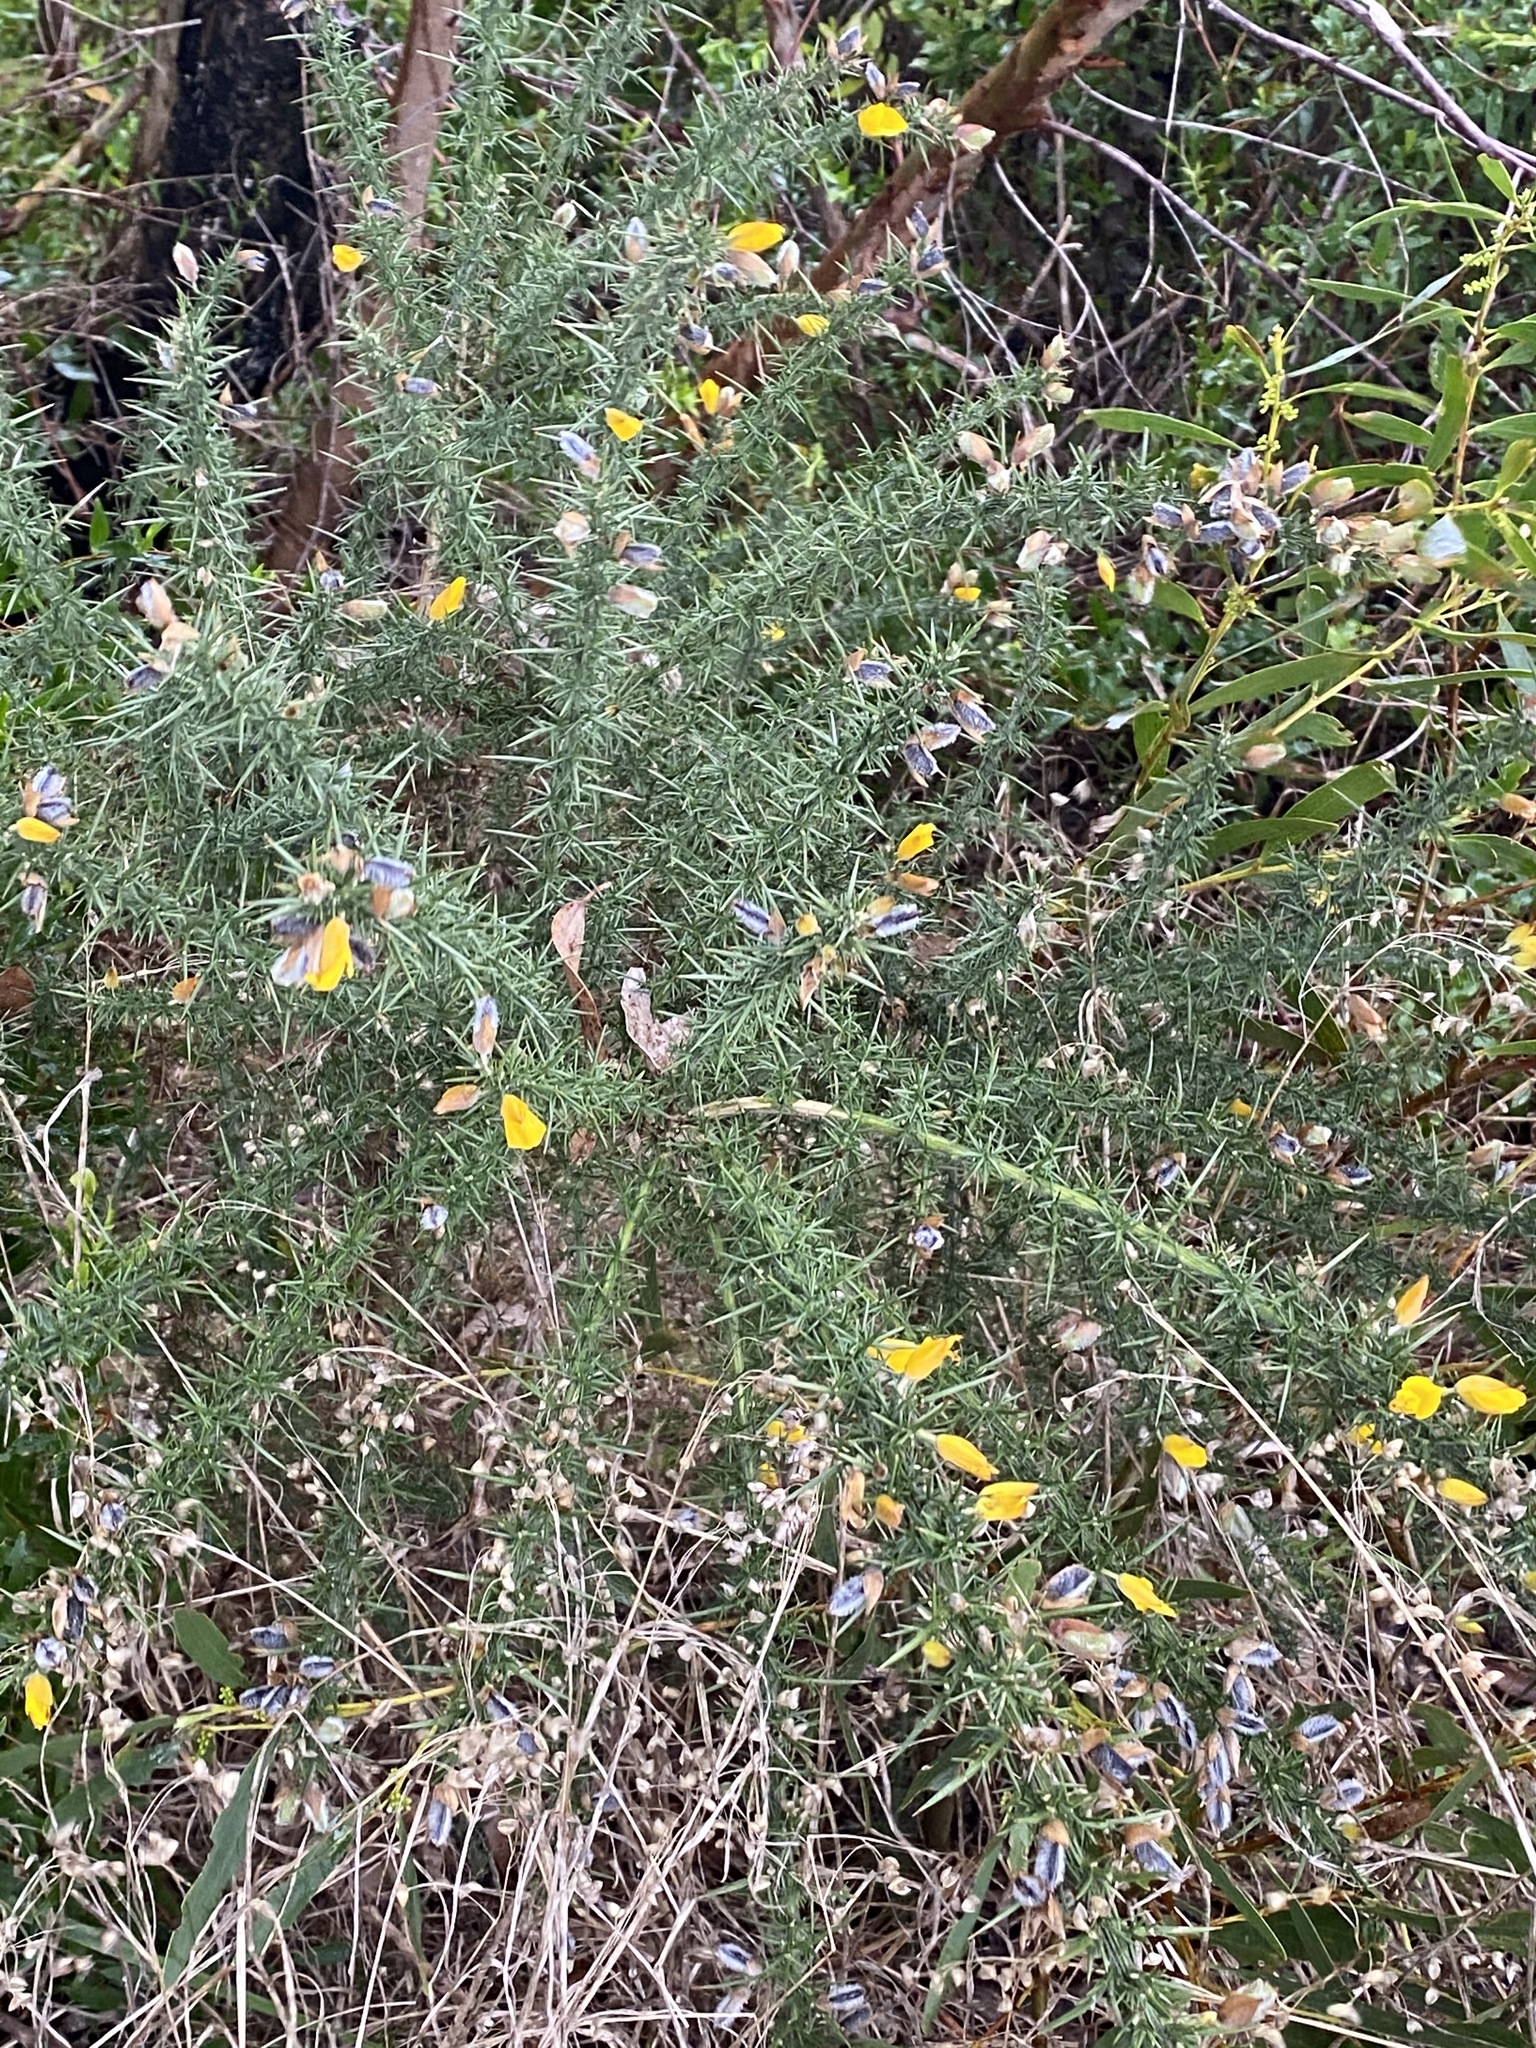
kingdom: Plantae
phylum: Tracheophyta
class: Magnoliopsida
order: Fabales
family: Fabaceae
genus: Ulex
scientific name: Ulex europaeus
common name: Common gorse
